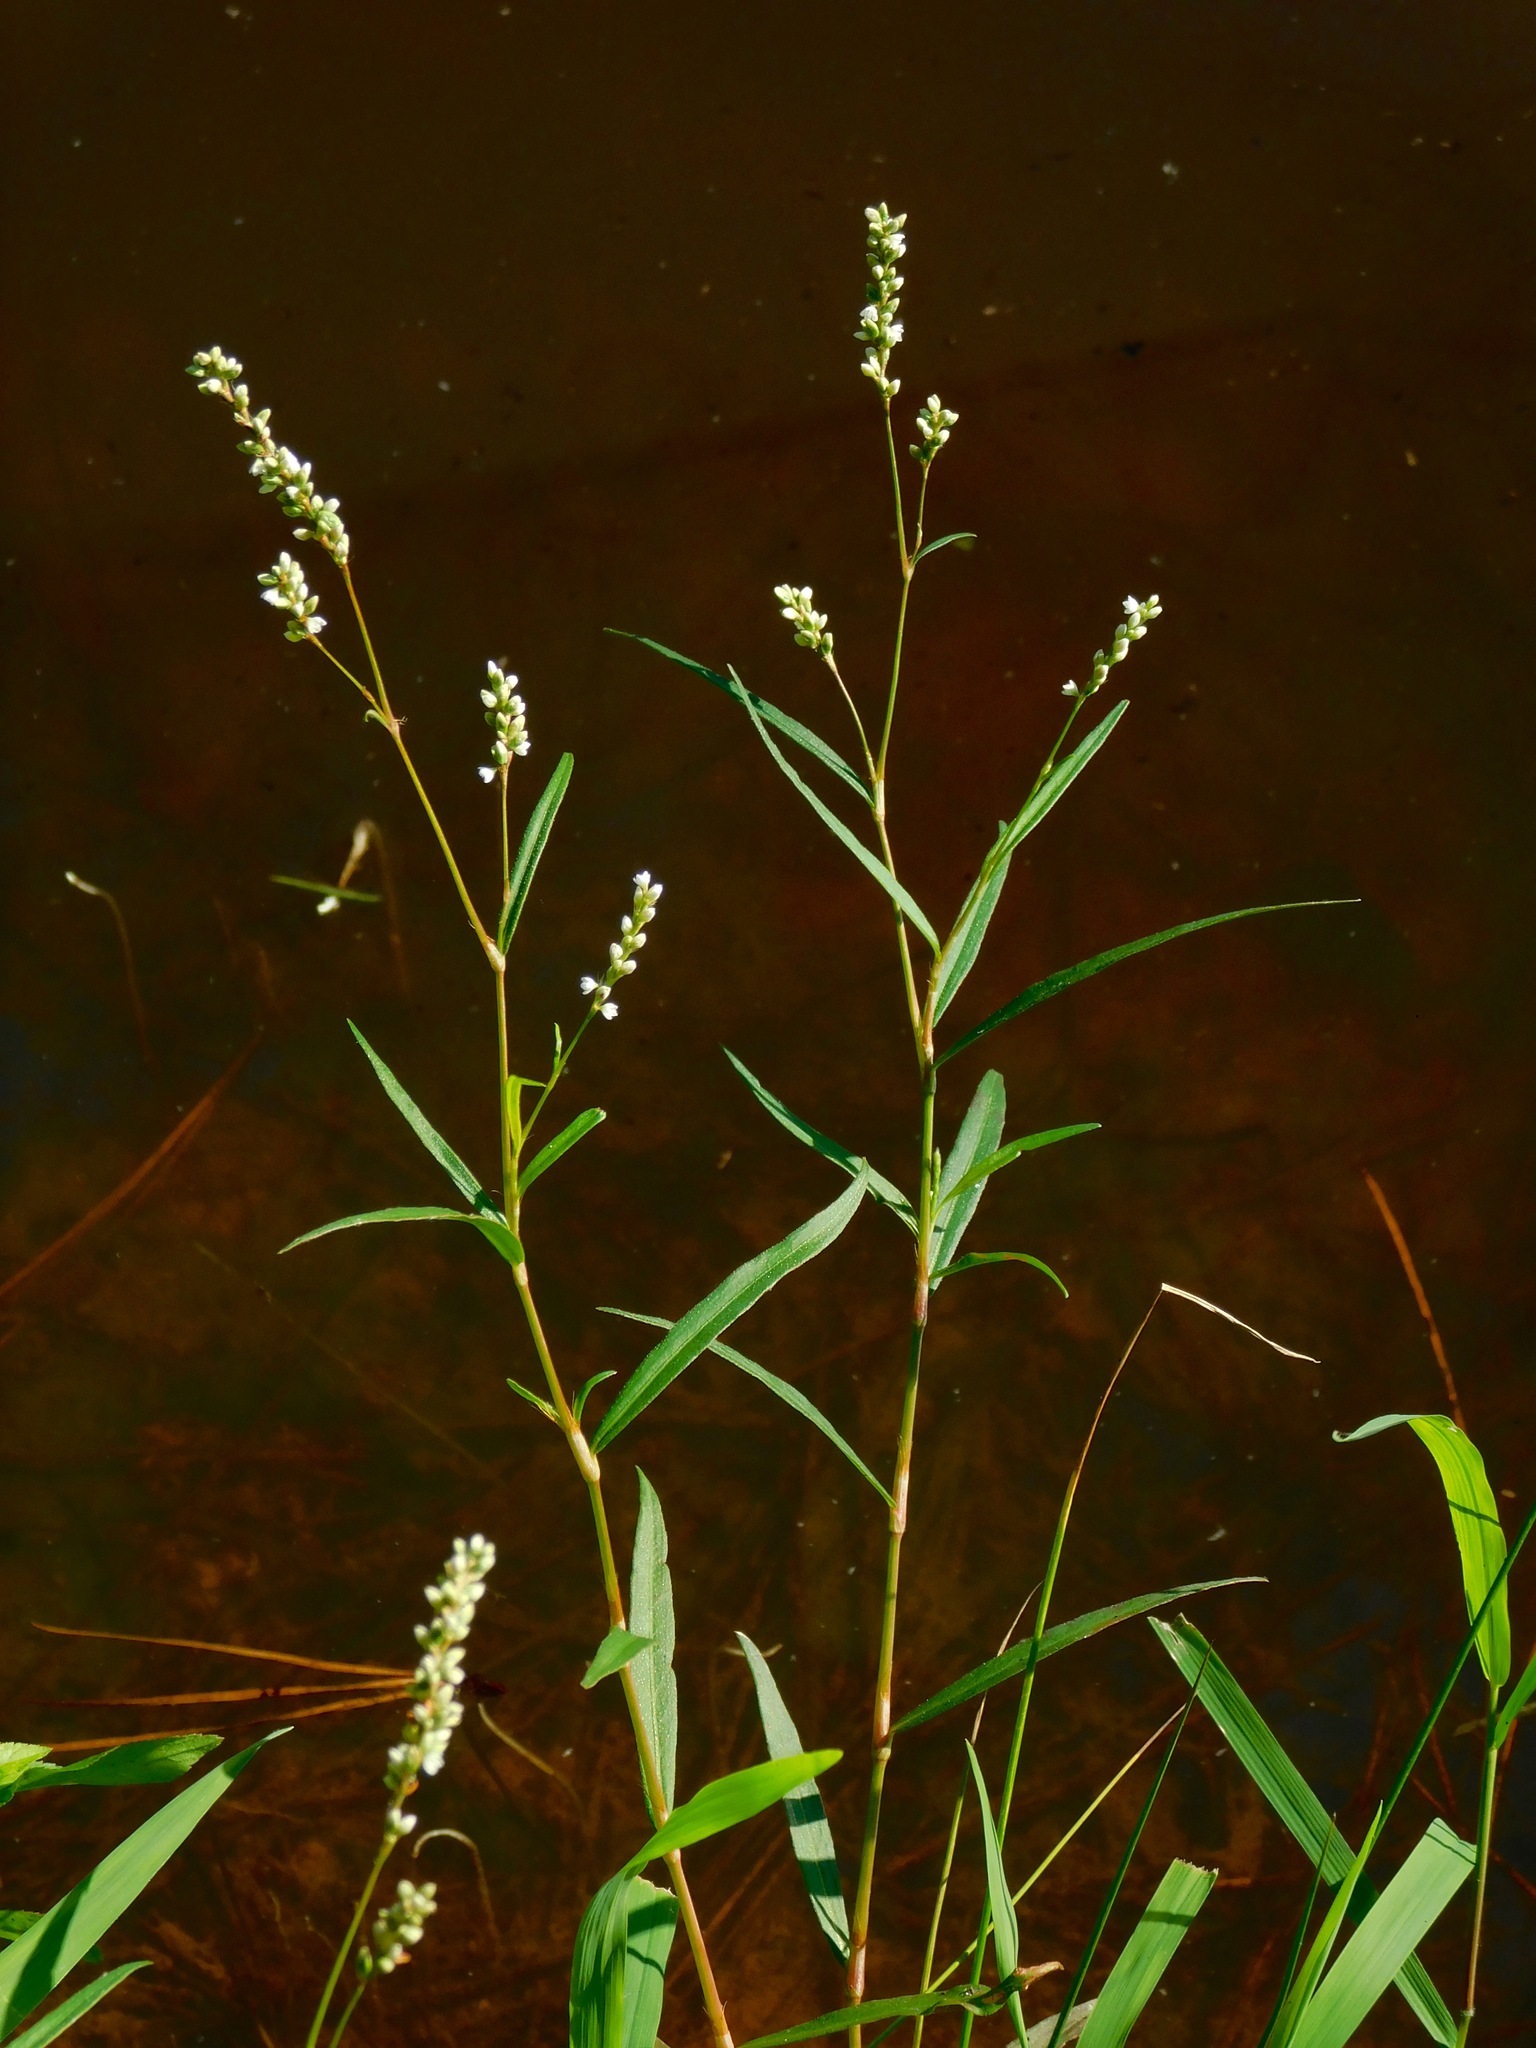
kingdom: Plantae
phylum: Tracheophyta
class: Magnoliopsida
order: Caryophyllales
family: Polygonaceae
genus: Persicaria
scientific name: Persicaria hydropiperoides
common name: Swamp smartweed
